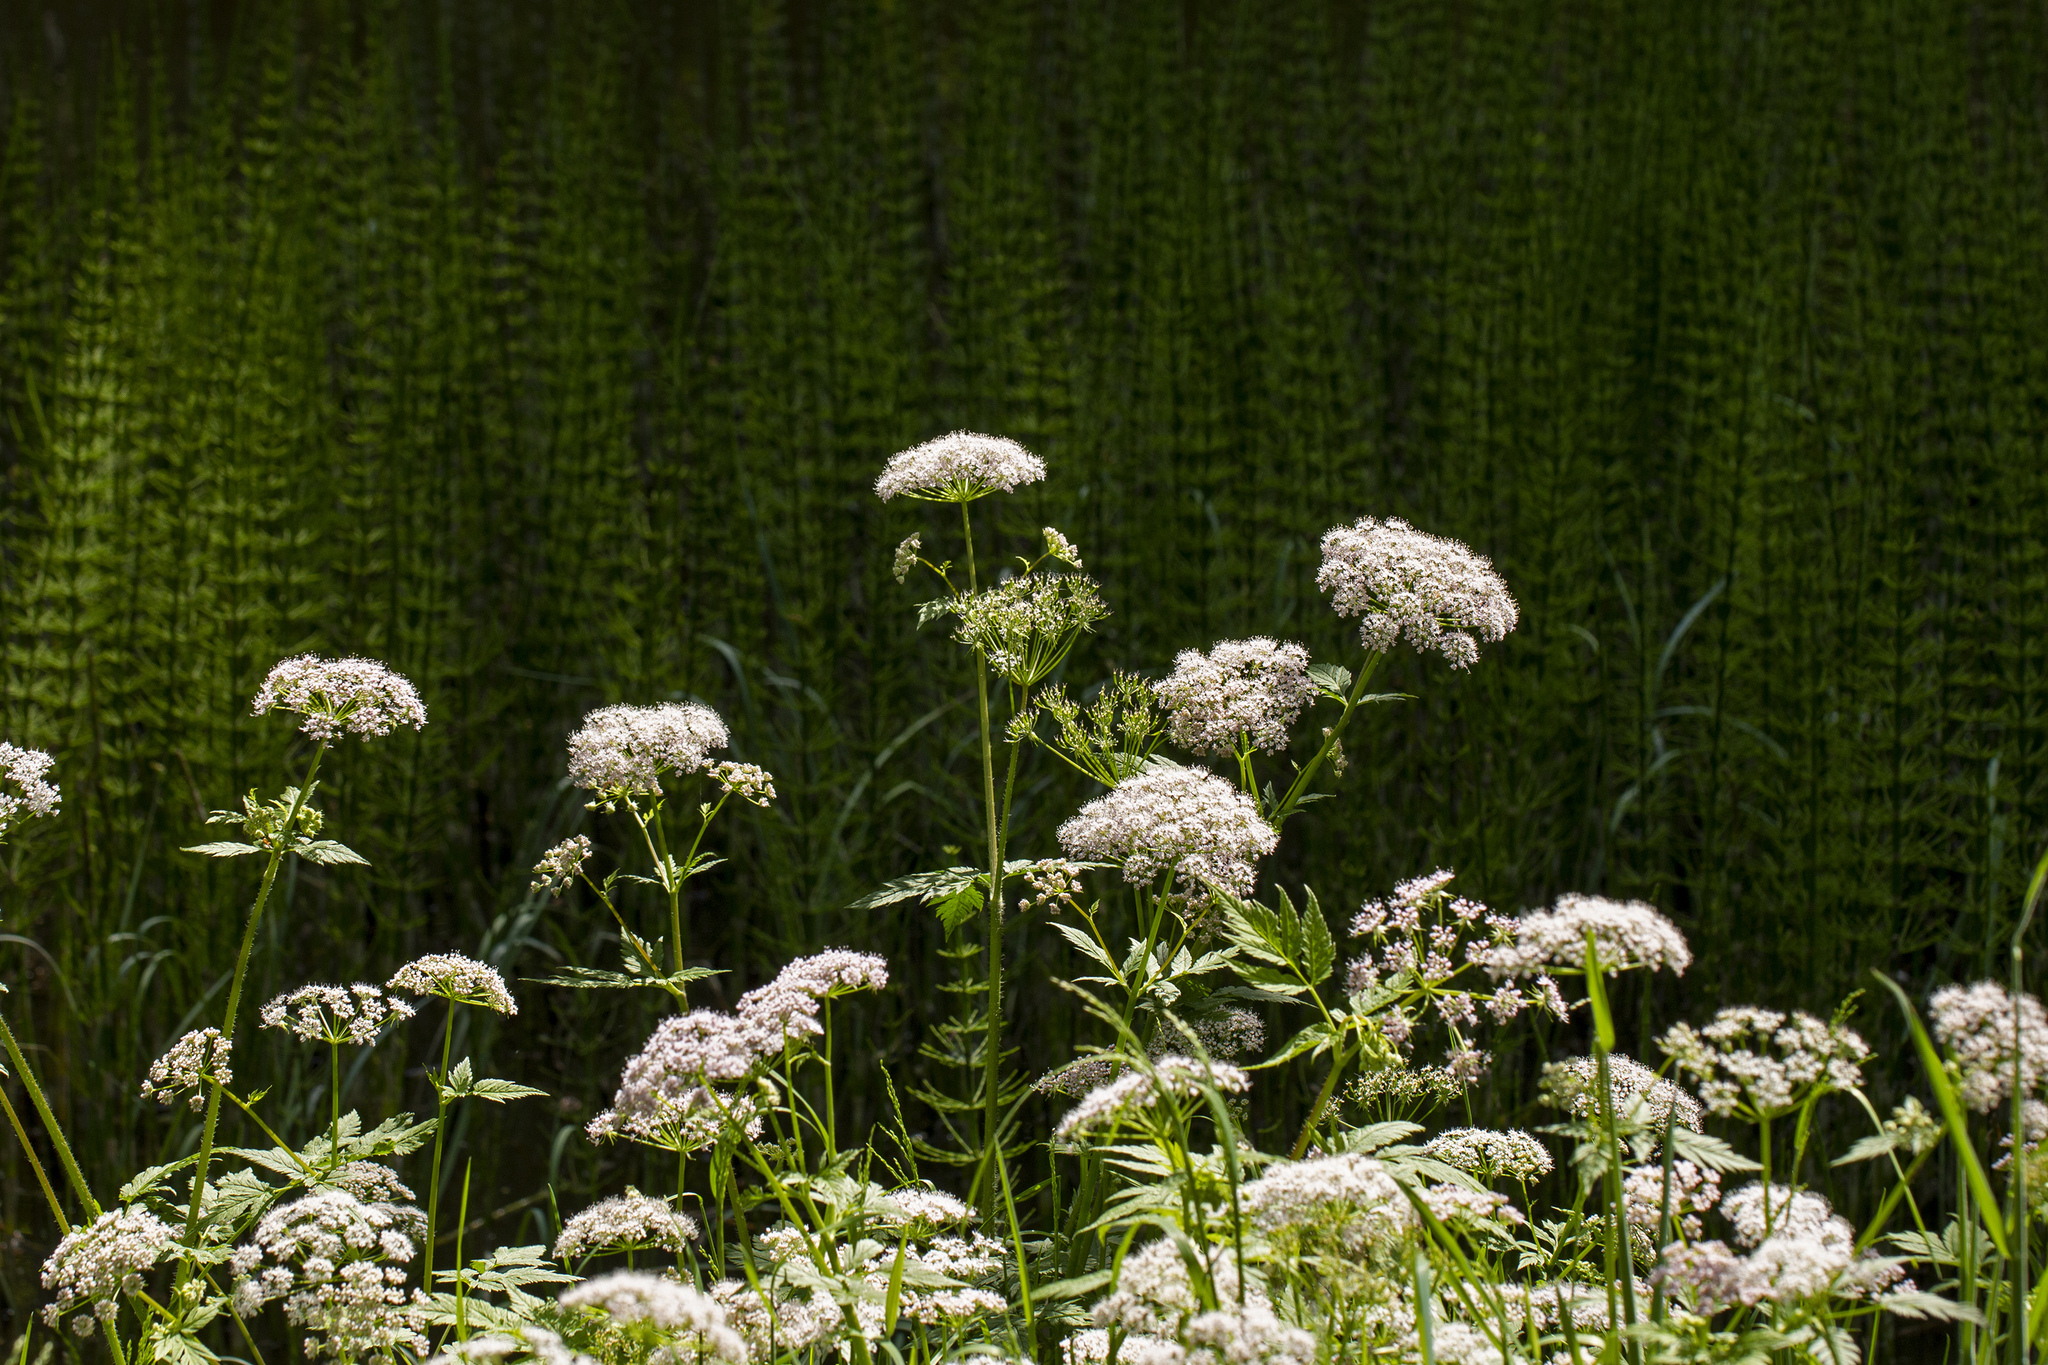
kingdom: Plantae
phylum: Tracheophyta
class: Magnoliopsida
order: Dipsacales
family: Caprifoliaceae
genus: Valeriana
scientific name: Valeriana officinalis
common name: Common valerian
